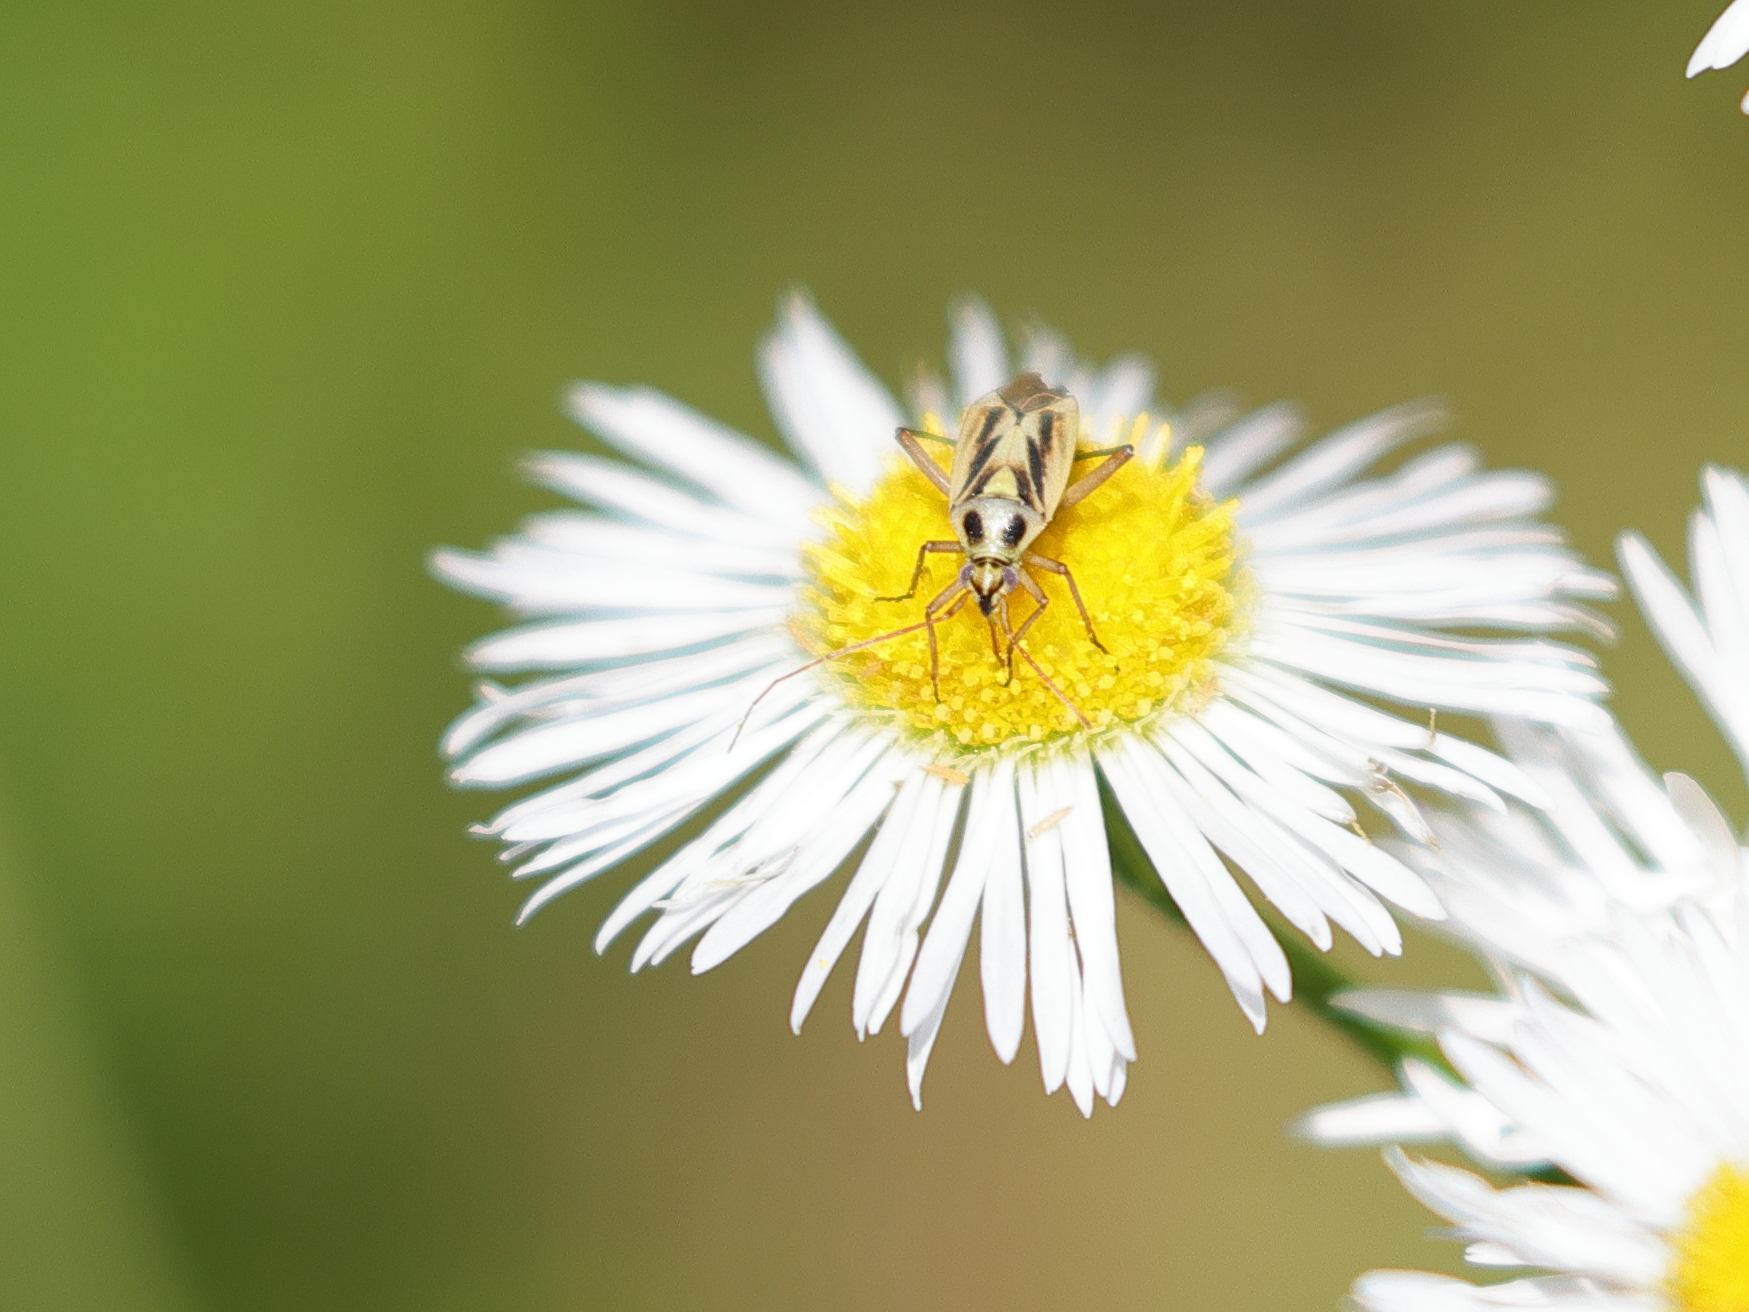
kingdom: Animalia
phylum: Arthropoda
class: Insecta
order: Hemiptera
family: Miridae
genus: Stenotus
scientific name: Stenotus binotatus
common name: Plant bug
